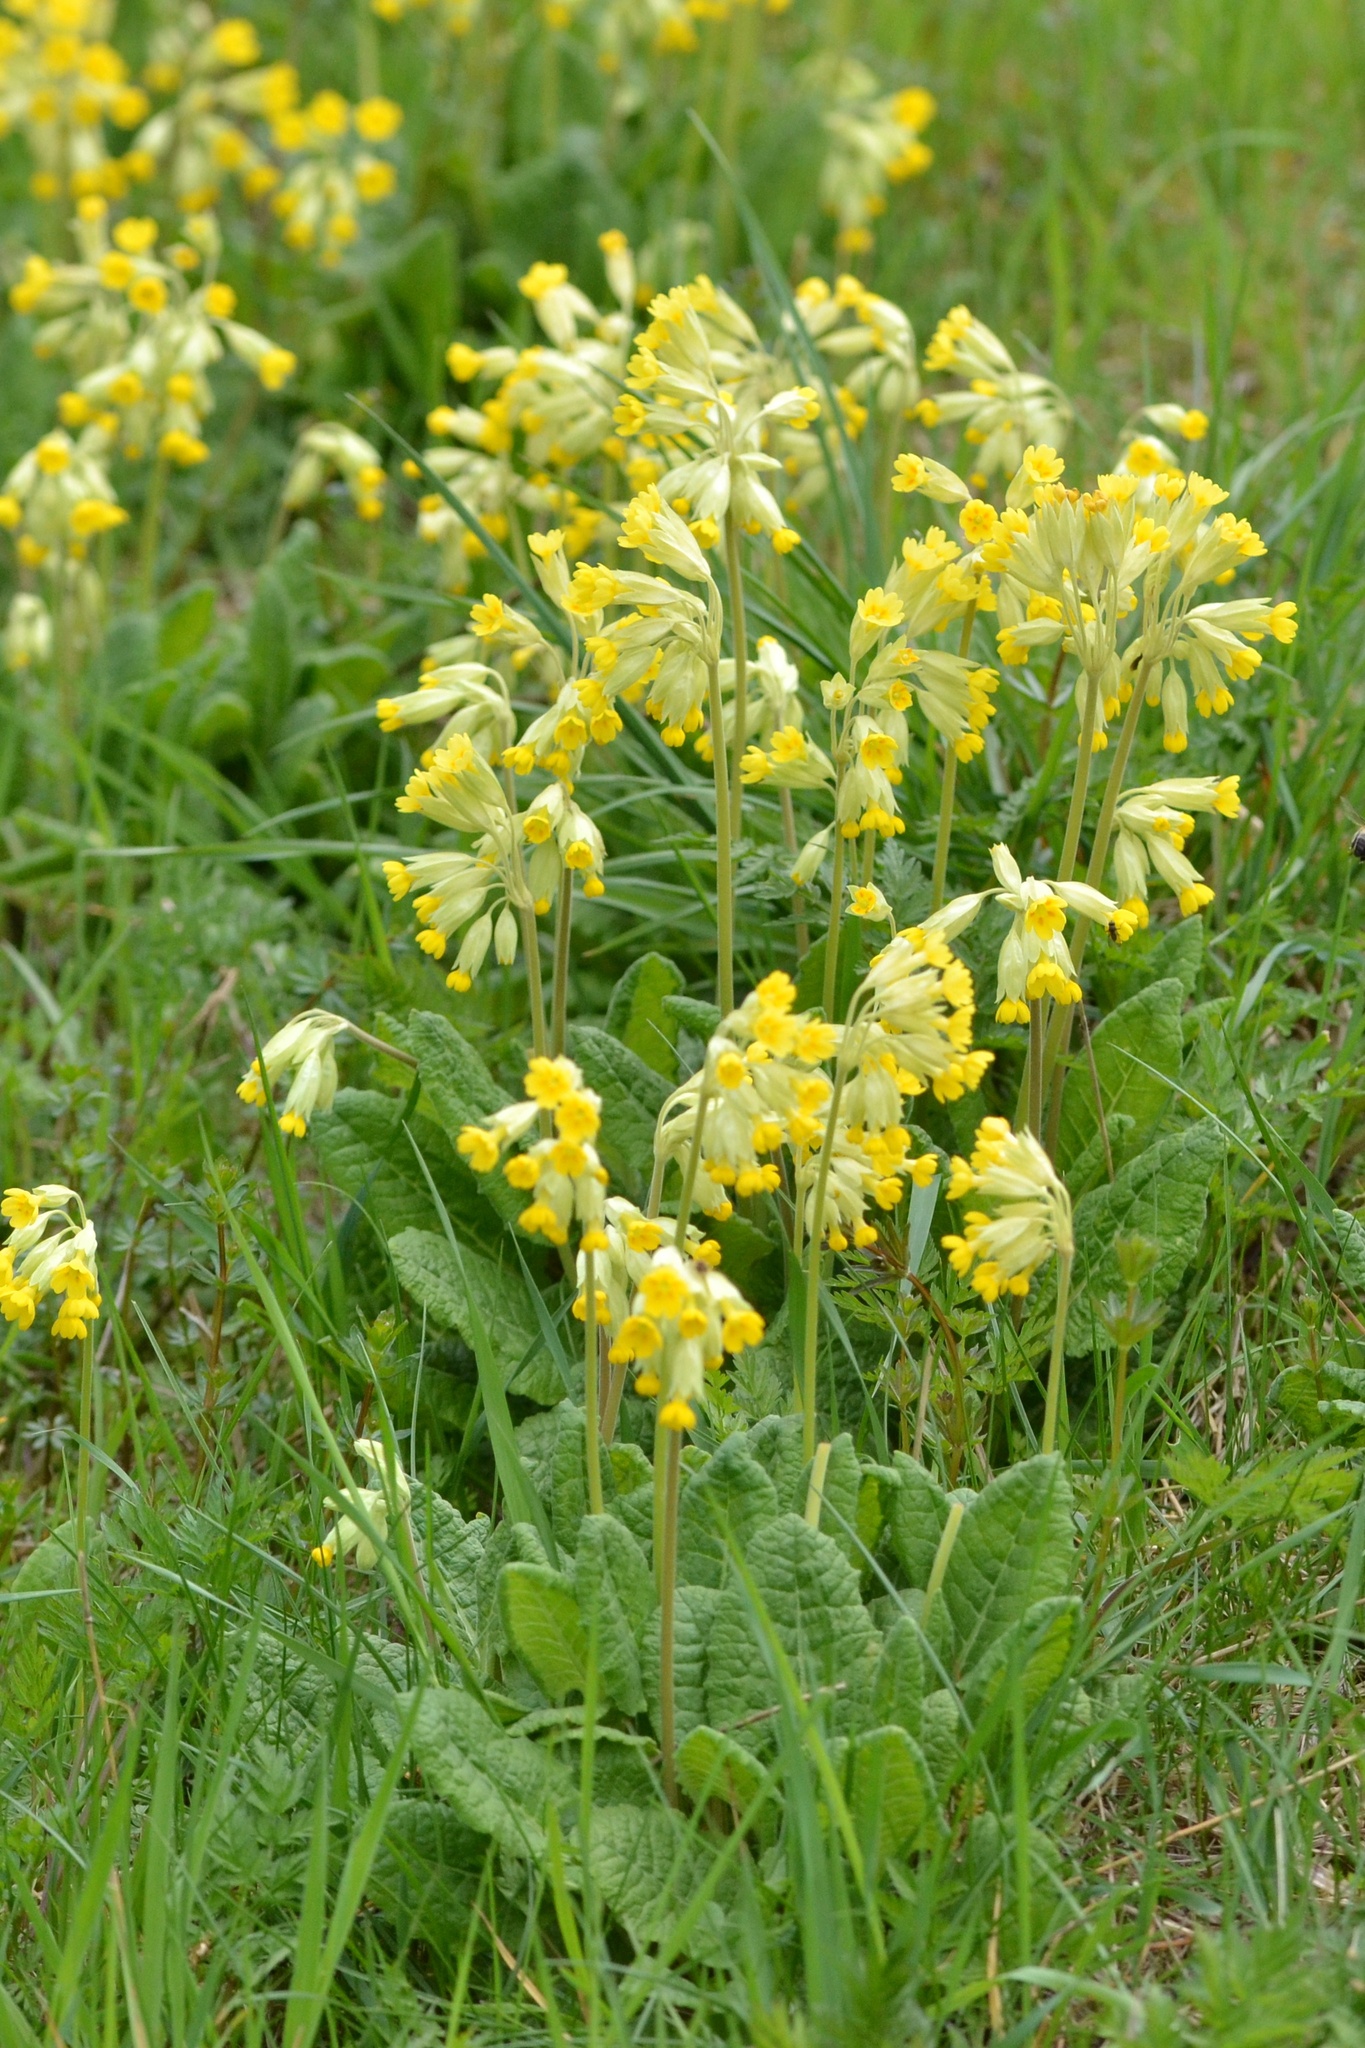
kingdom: Plantae
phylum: Tracheophyta
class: Magnoliopsida
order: Ericales
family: Primulaceae
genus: Primula
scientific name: Primula veris
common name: Cowslip
